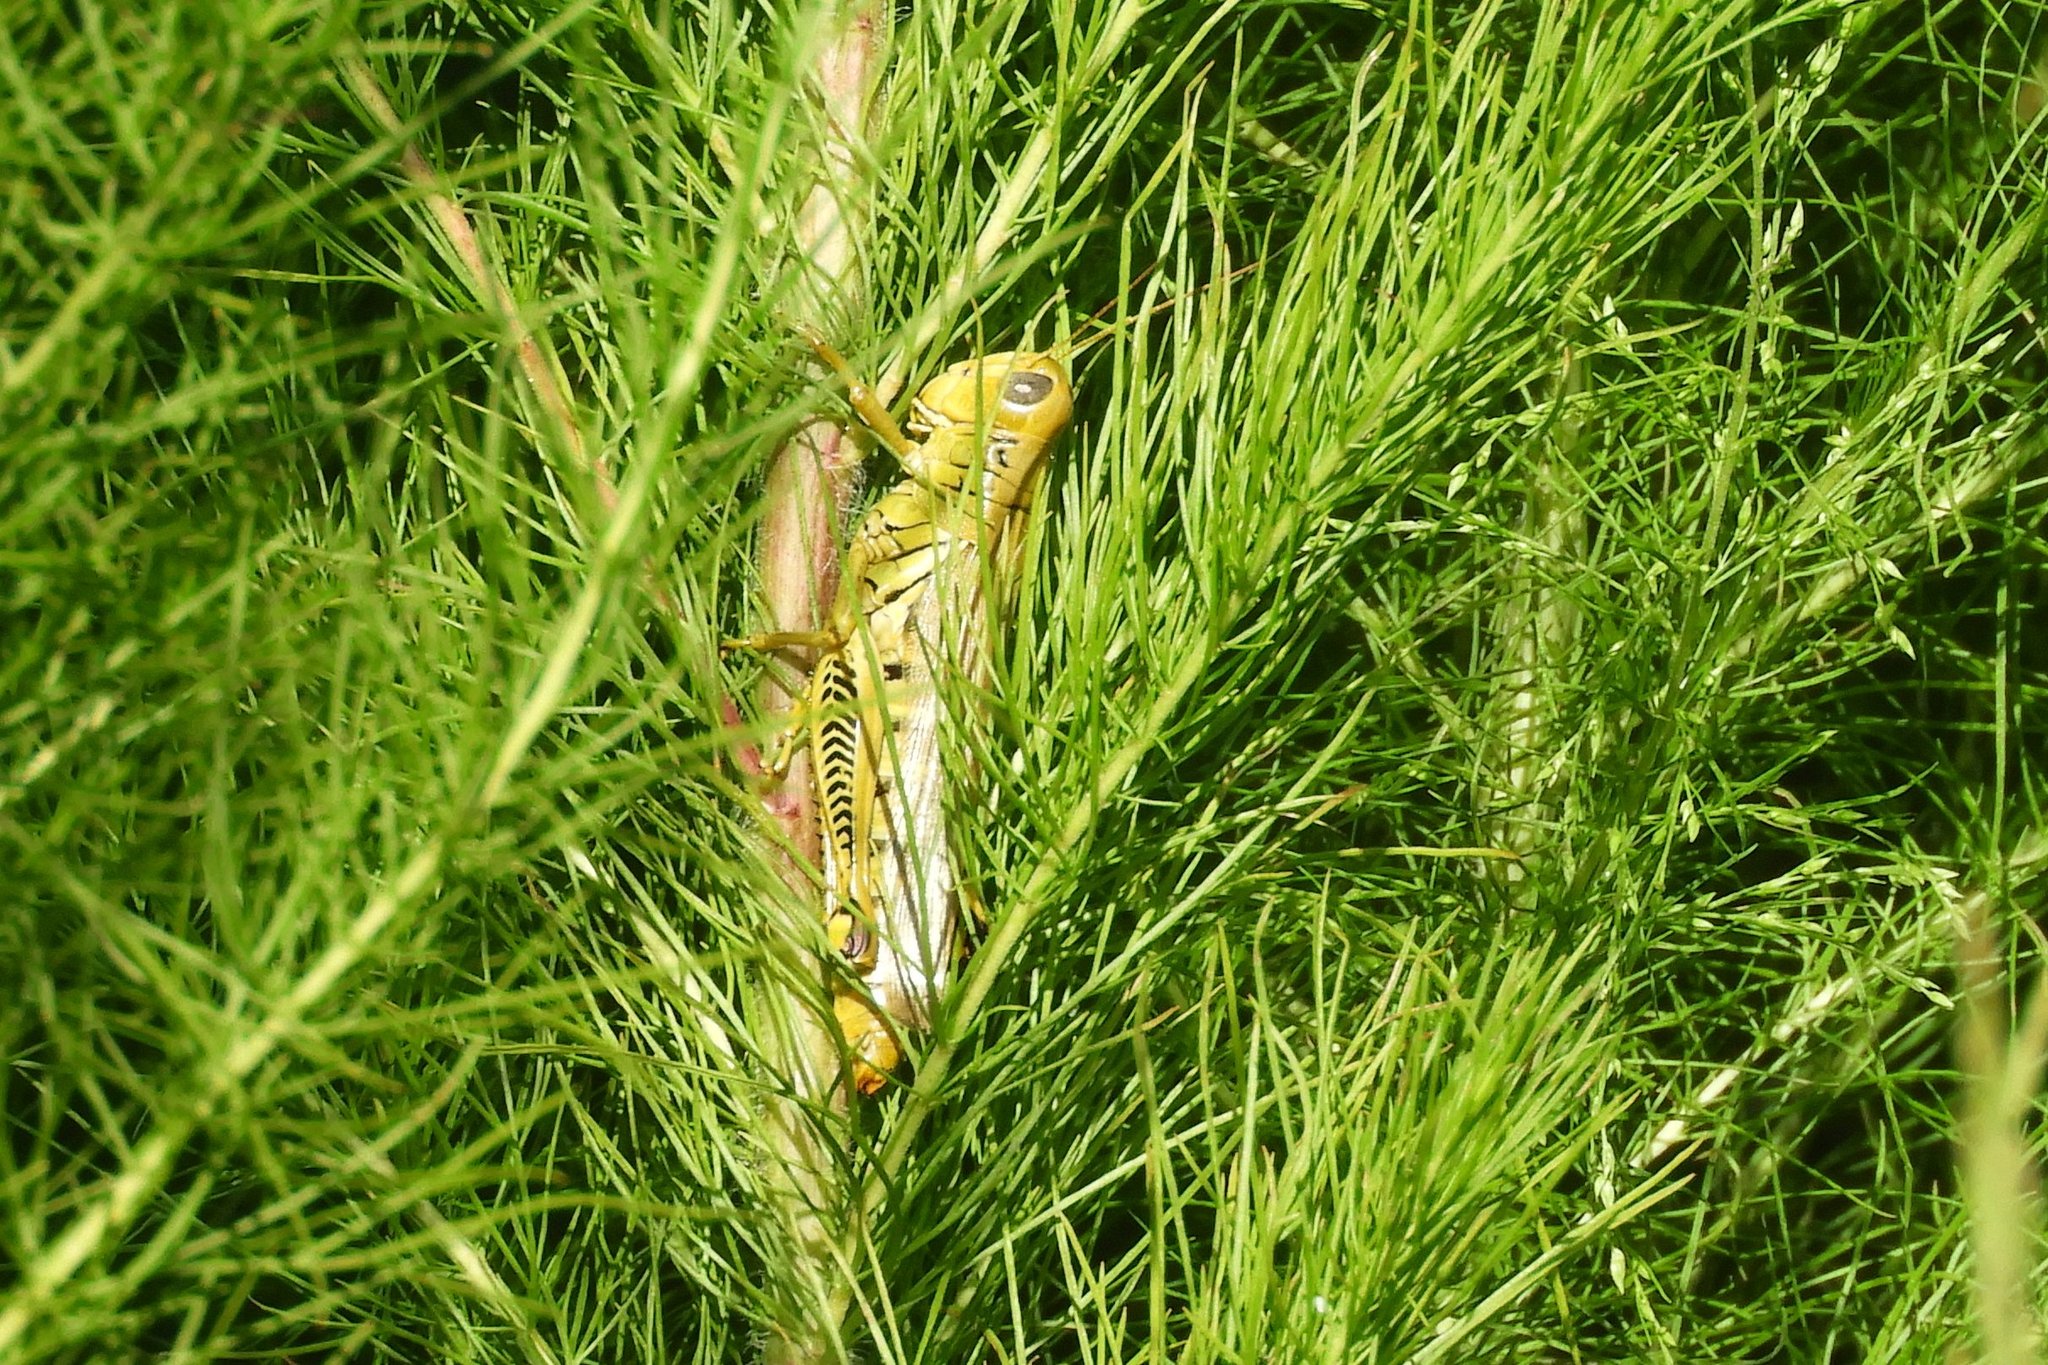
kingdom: Animalia
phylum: Arthropoda
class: Insecta
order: Orthoptera
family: Acrididae
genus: Melanoplus
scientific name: Melanoplus differentialis
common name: Differential grasshopper
